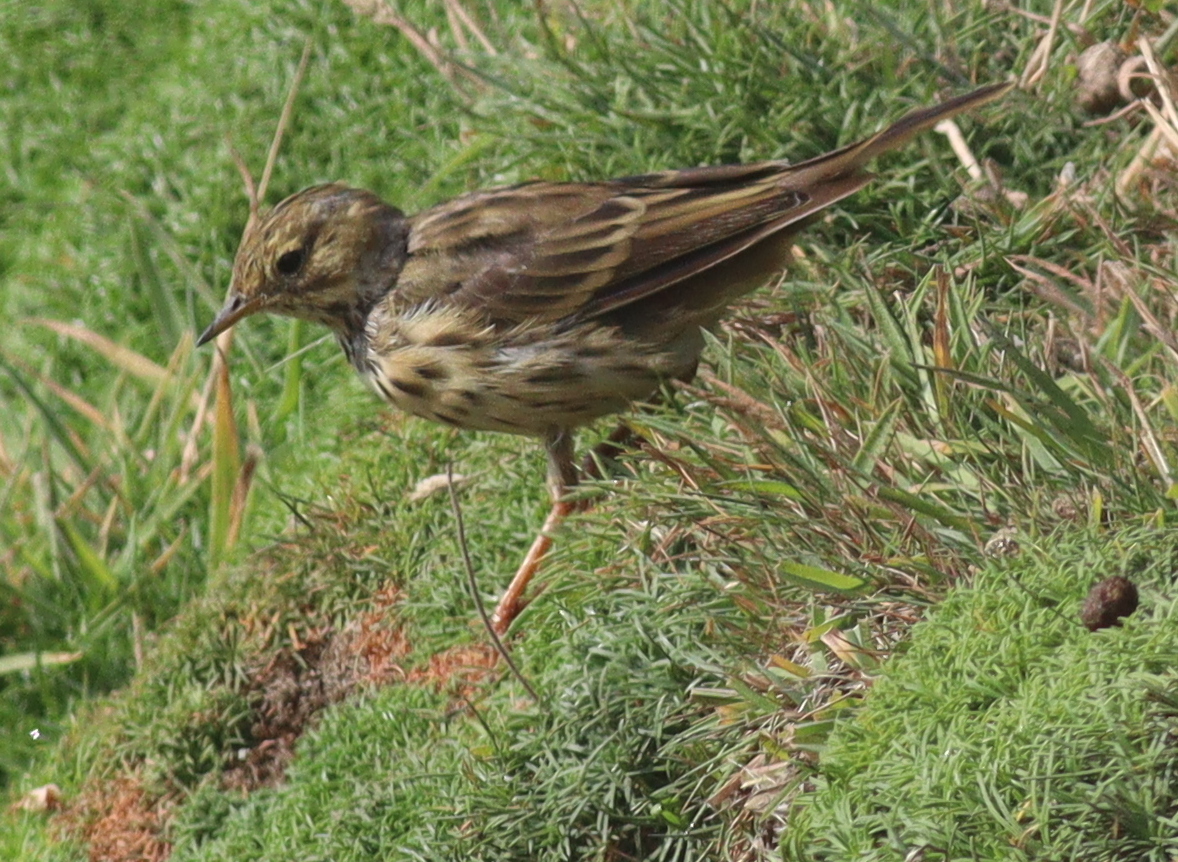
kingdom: Animalia
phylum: Chordata
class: Aves
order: Passeriformes
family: Motacillidae
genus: Anthus
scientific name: Anthus pratensis
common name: Meadow pipit
